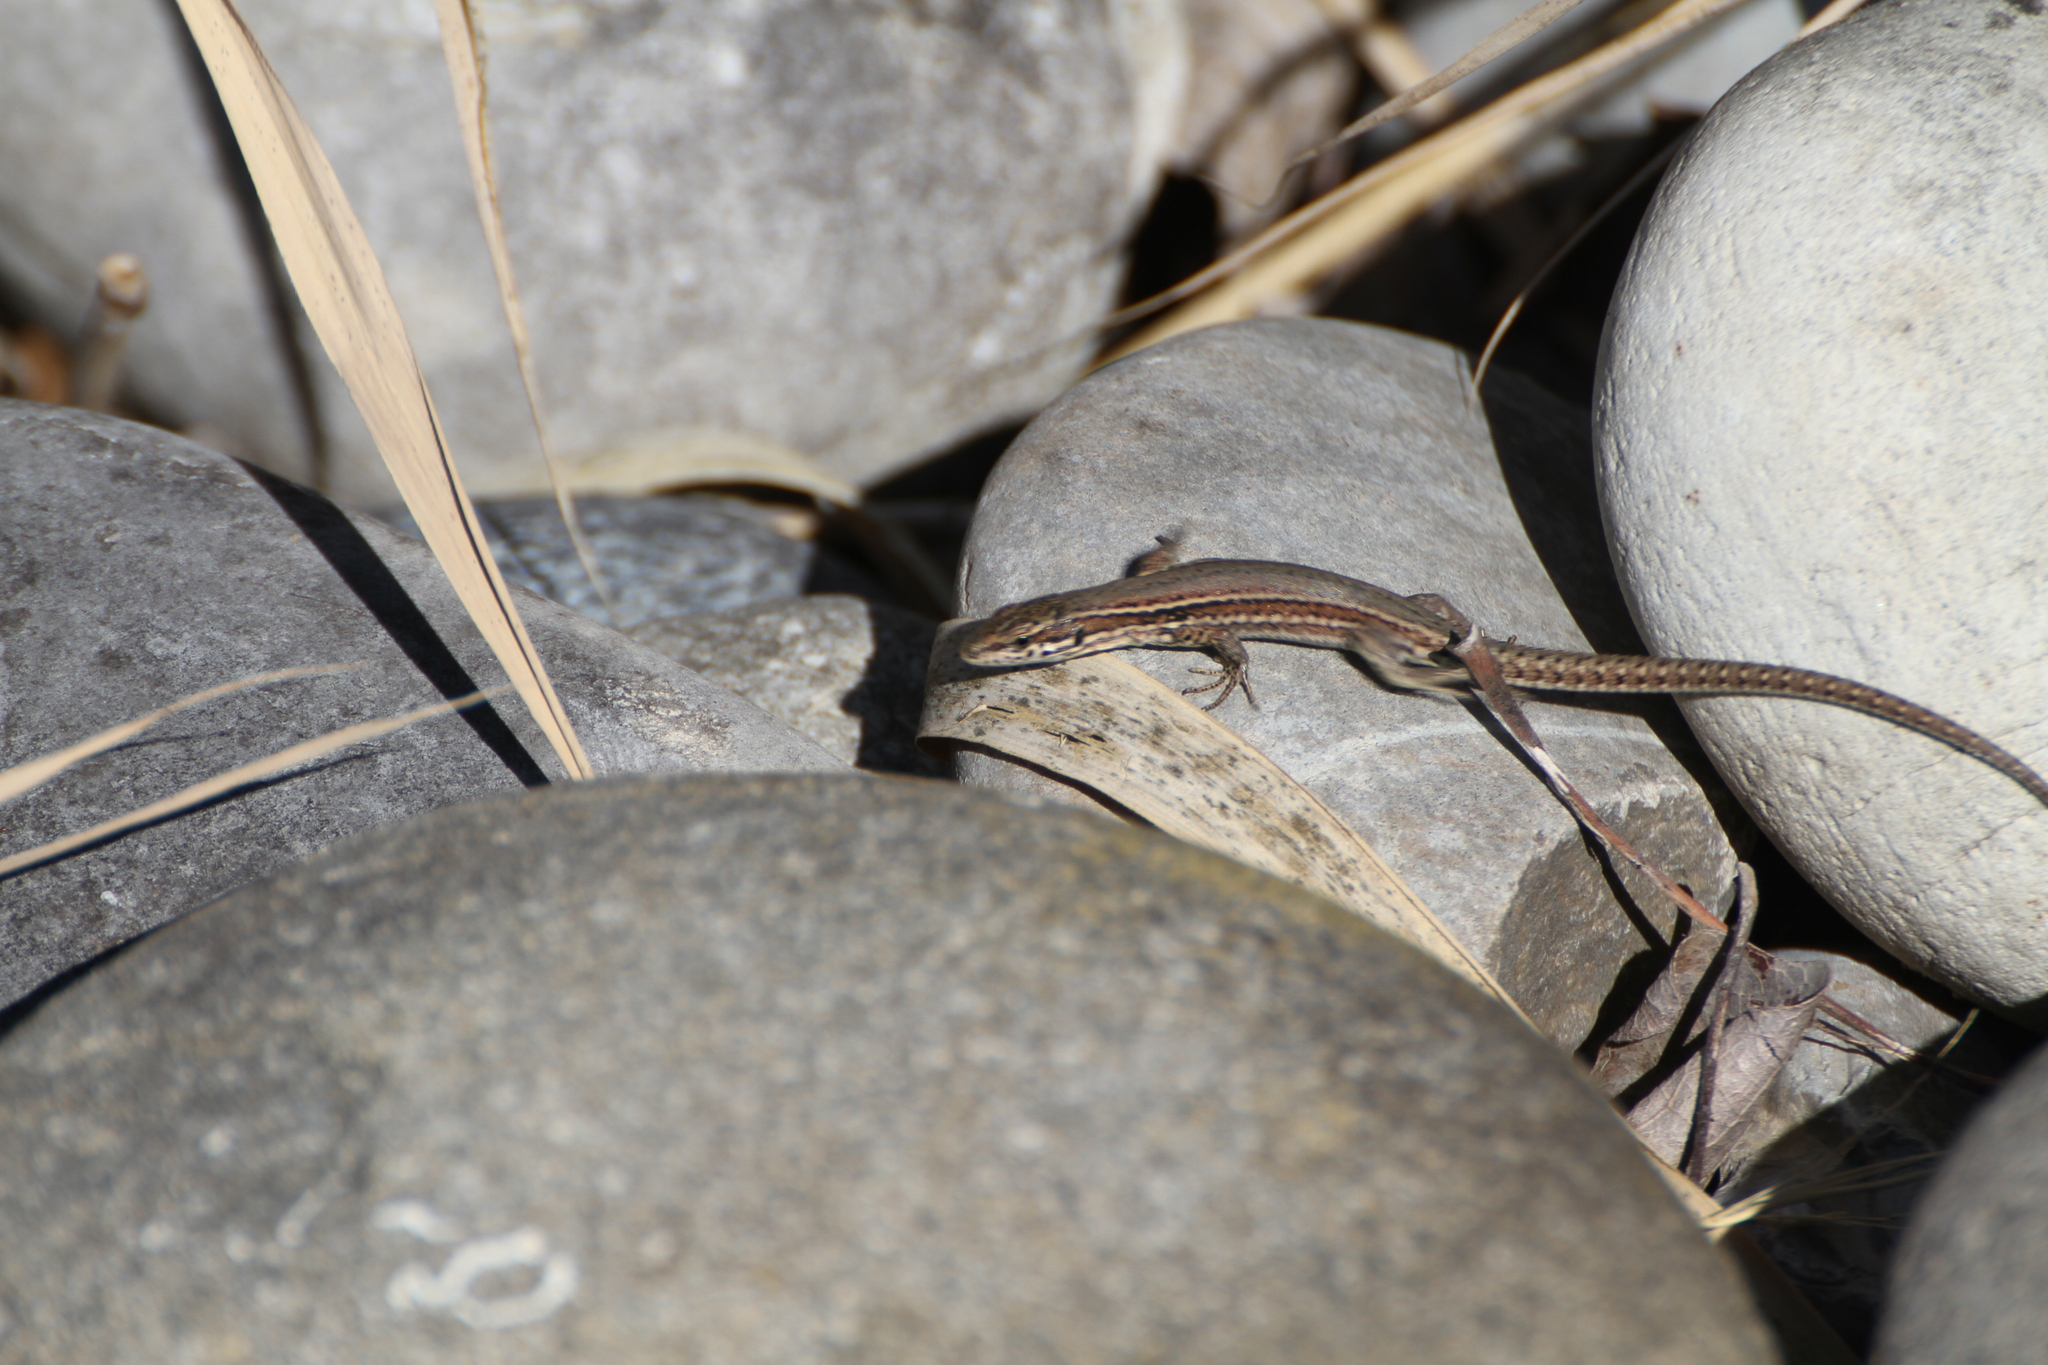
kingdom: Animalia
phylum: Chordata
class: Squamata
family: Lacertidae
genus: Podarcis
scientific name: Podarcis muralis
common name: Common wall lizard
